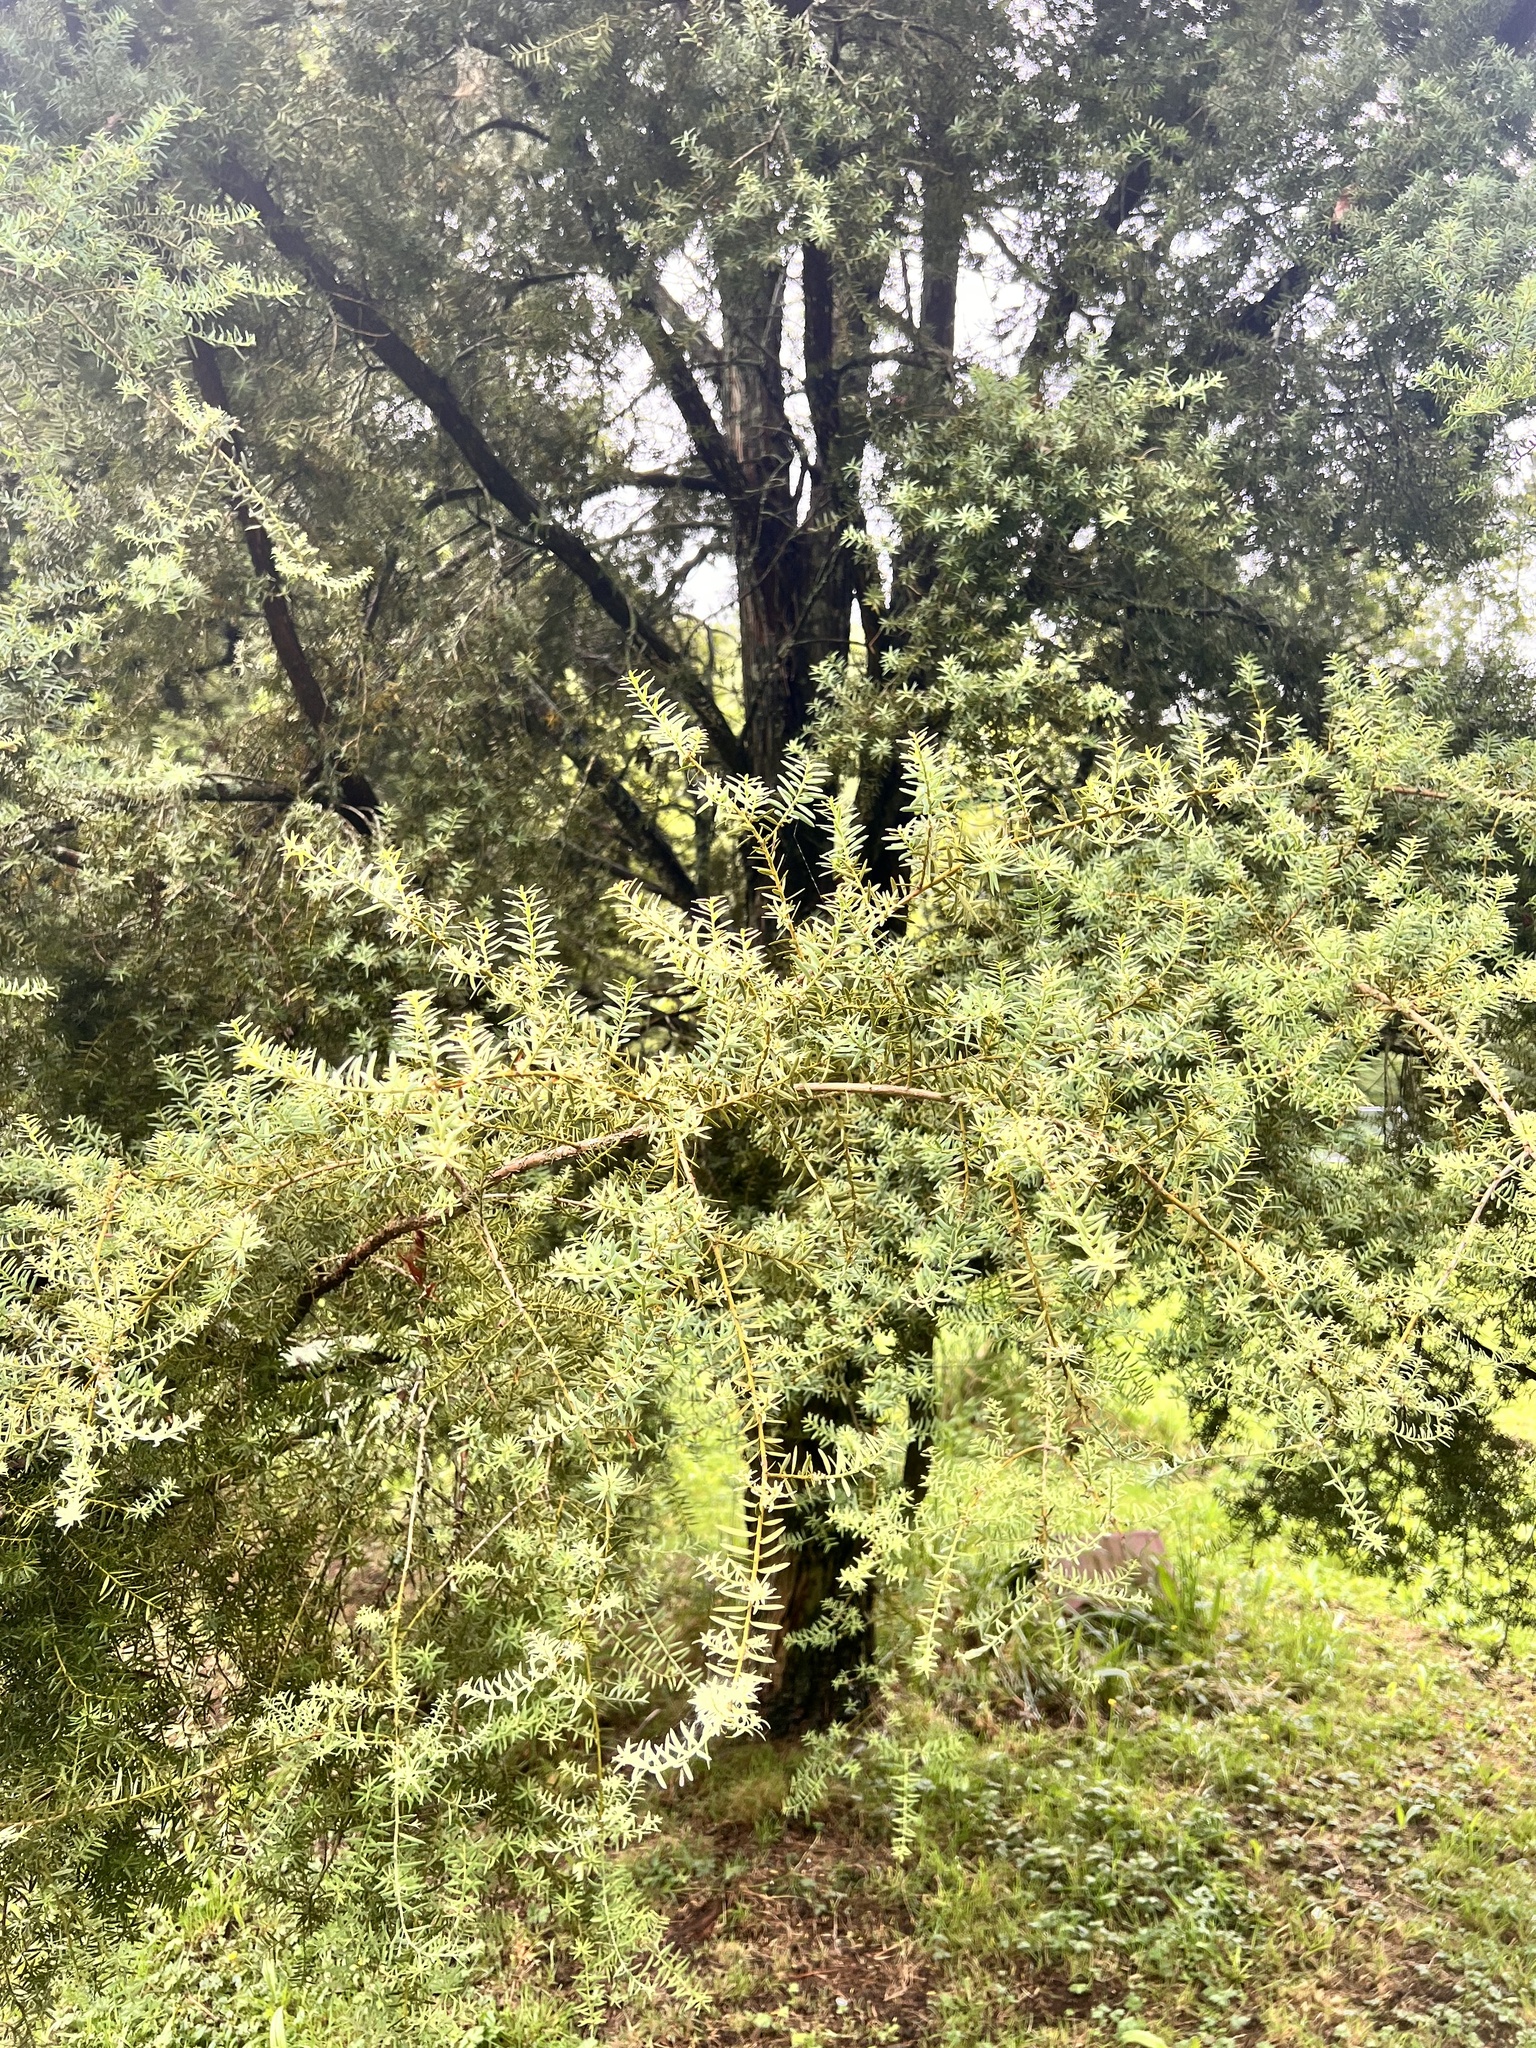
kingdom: Plantae
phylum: Tracheophyta
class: Pinopsida
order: Pinales
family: Podocarpaceae
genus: Podocarpus
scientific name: Podocarpus totara
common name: Totara
